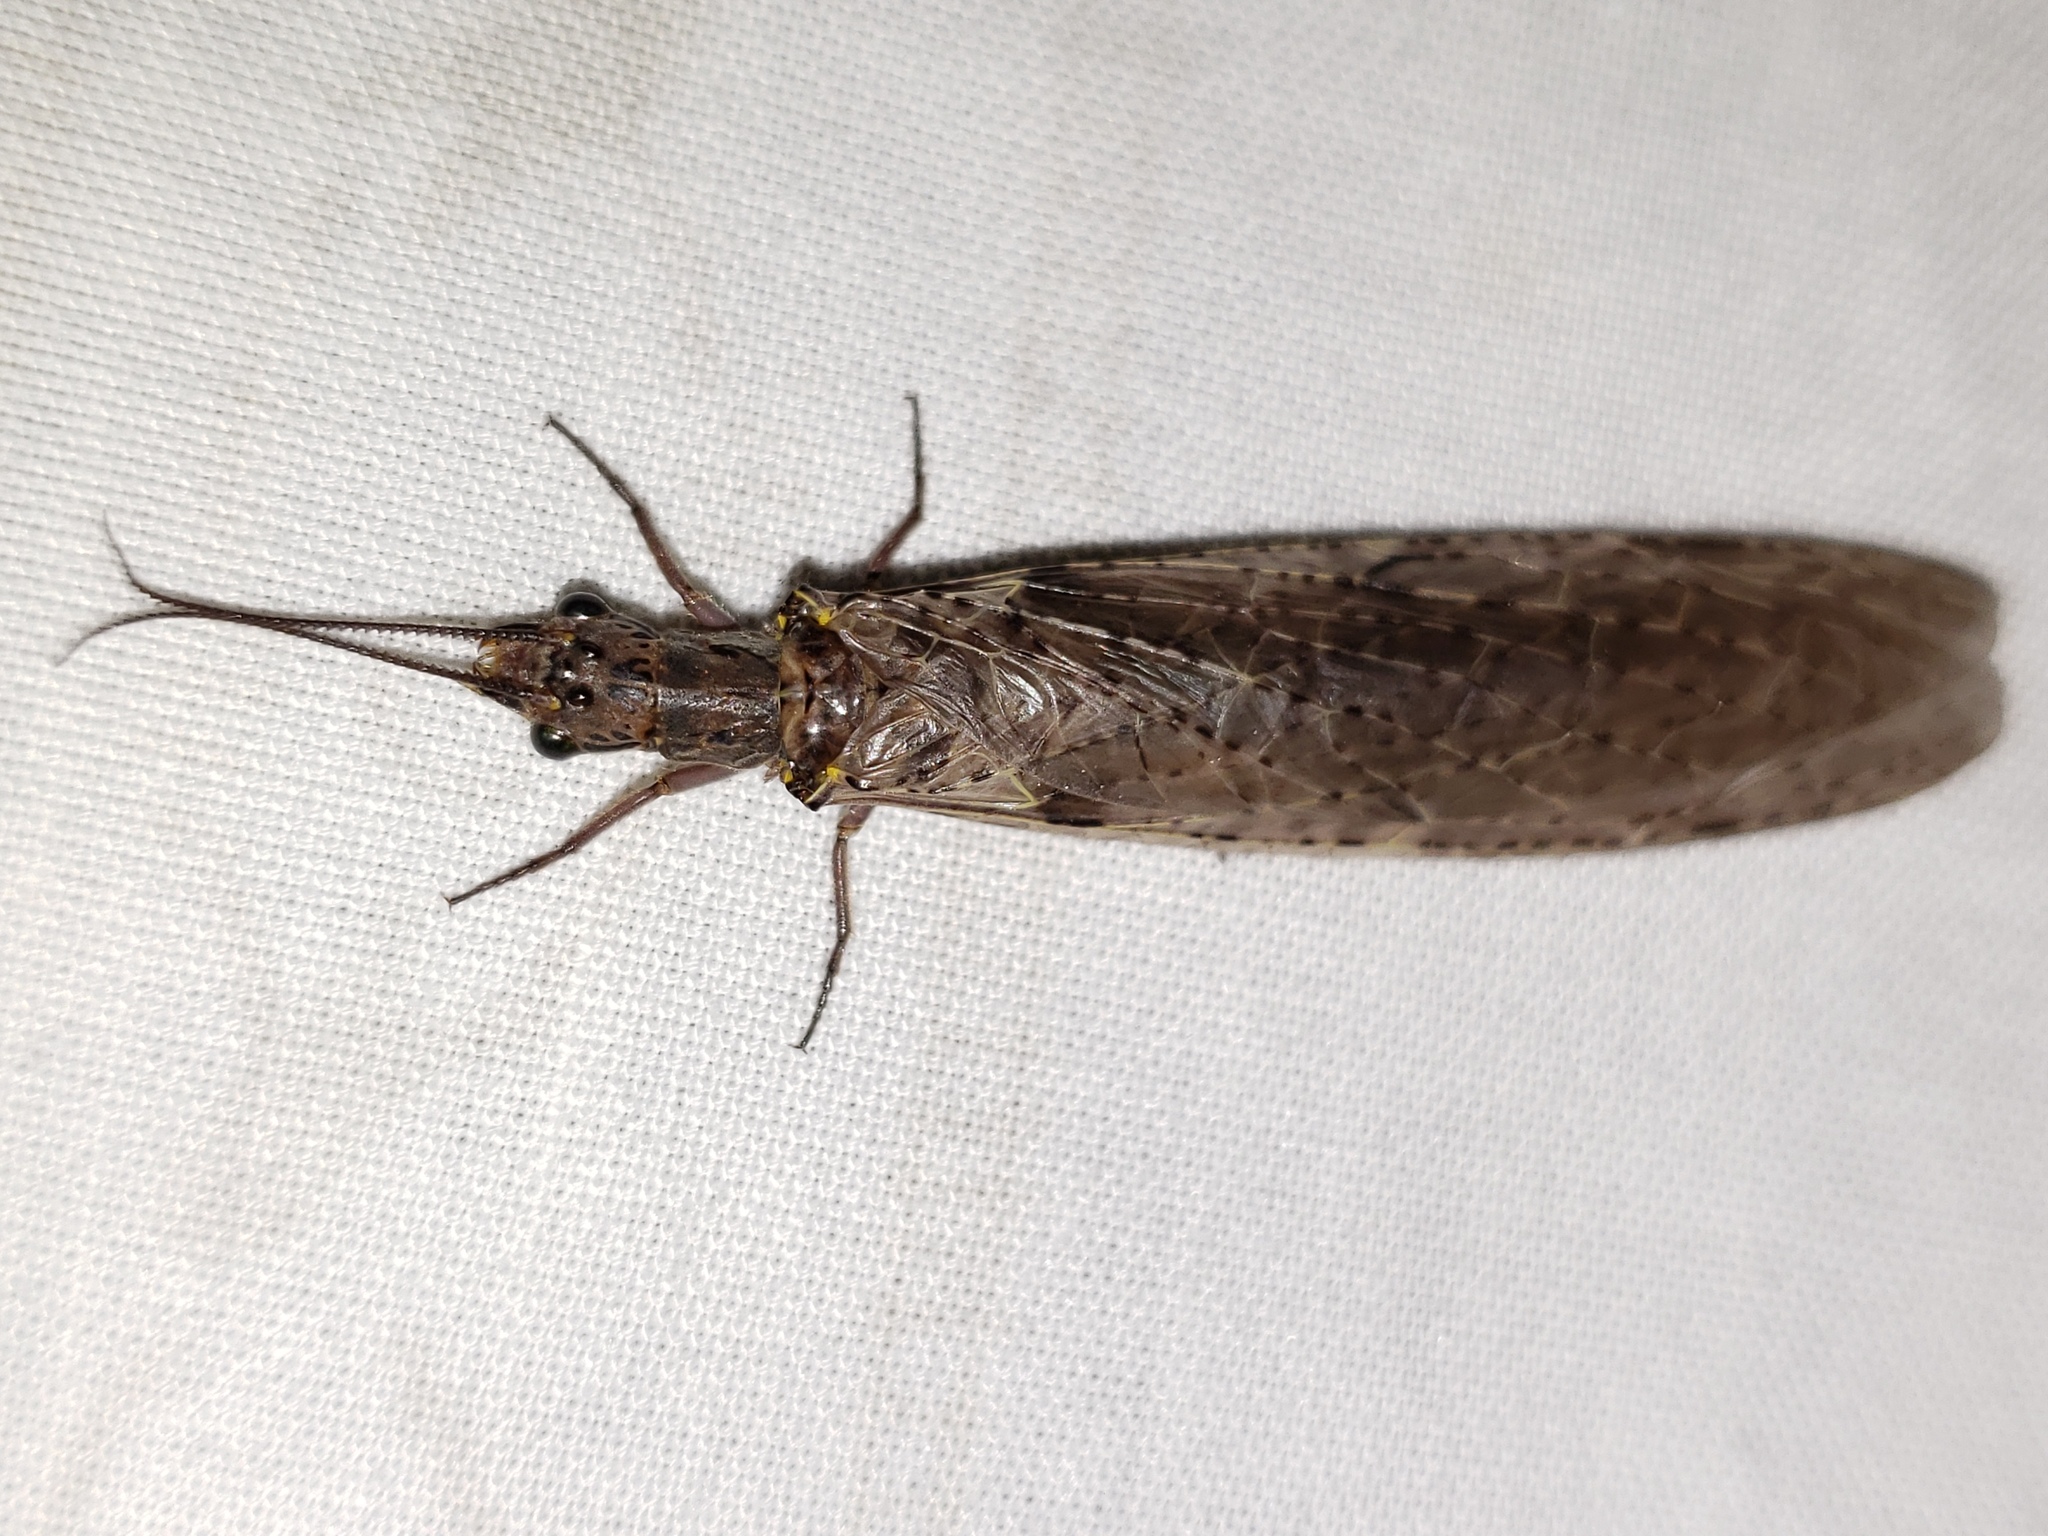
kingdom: Animalia
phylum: Arthropoda
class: Insecta
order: Megaloptera
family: Corydalidae
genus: Chauliodes
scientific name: Chauliodes rastricornis
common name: Spring fishfly
